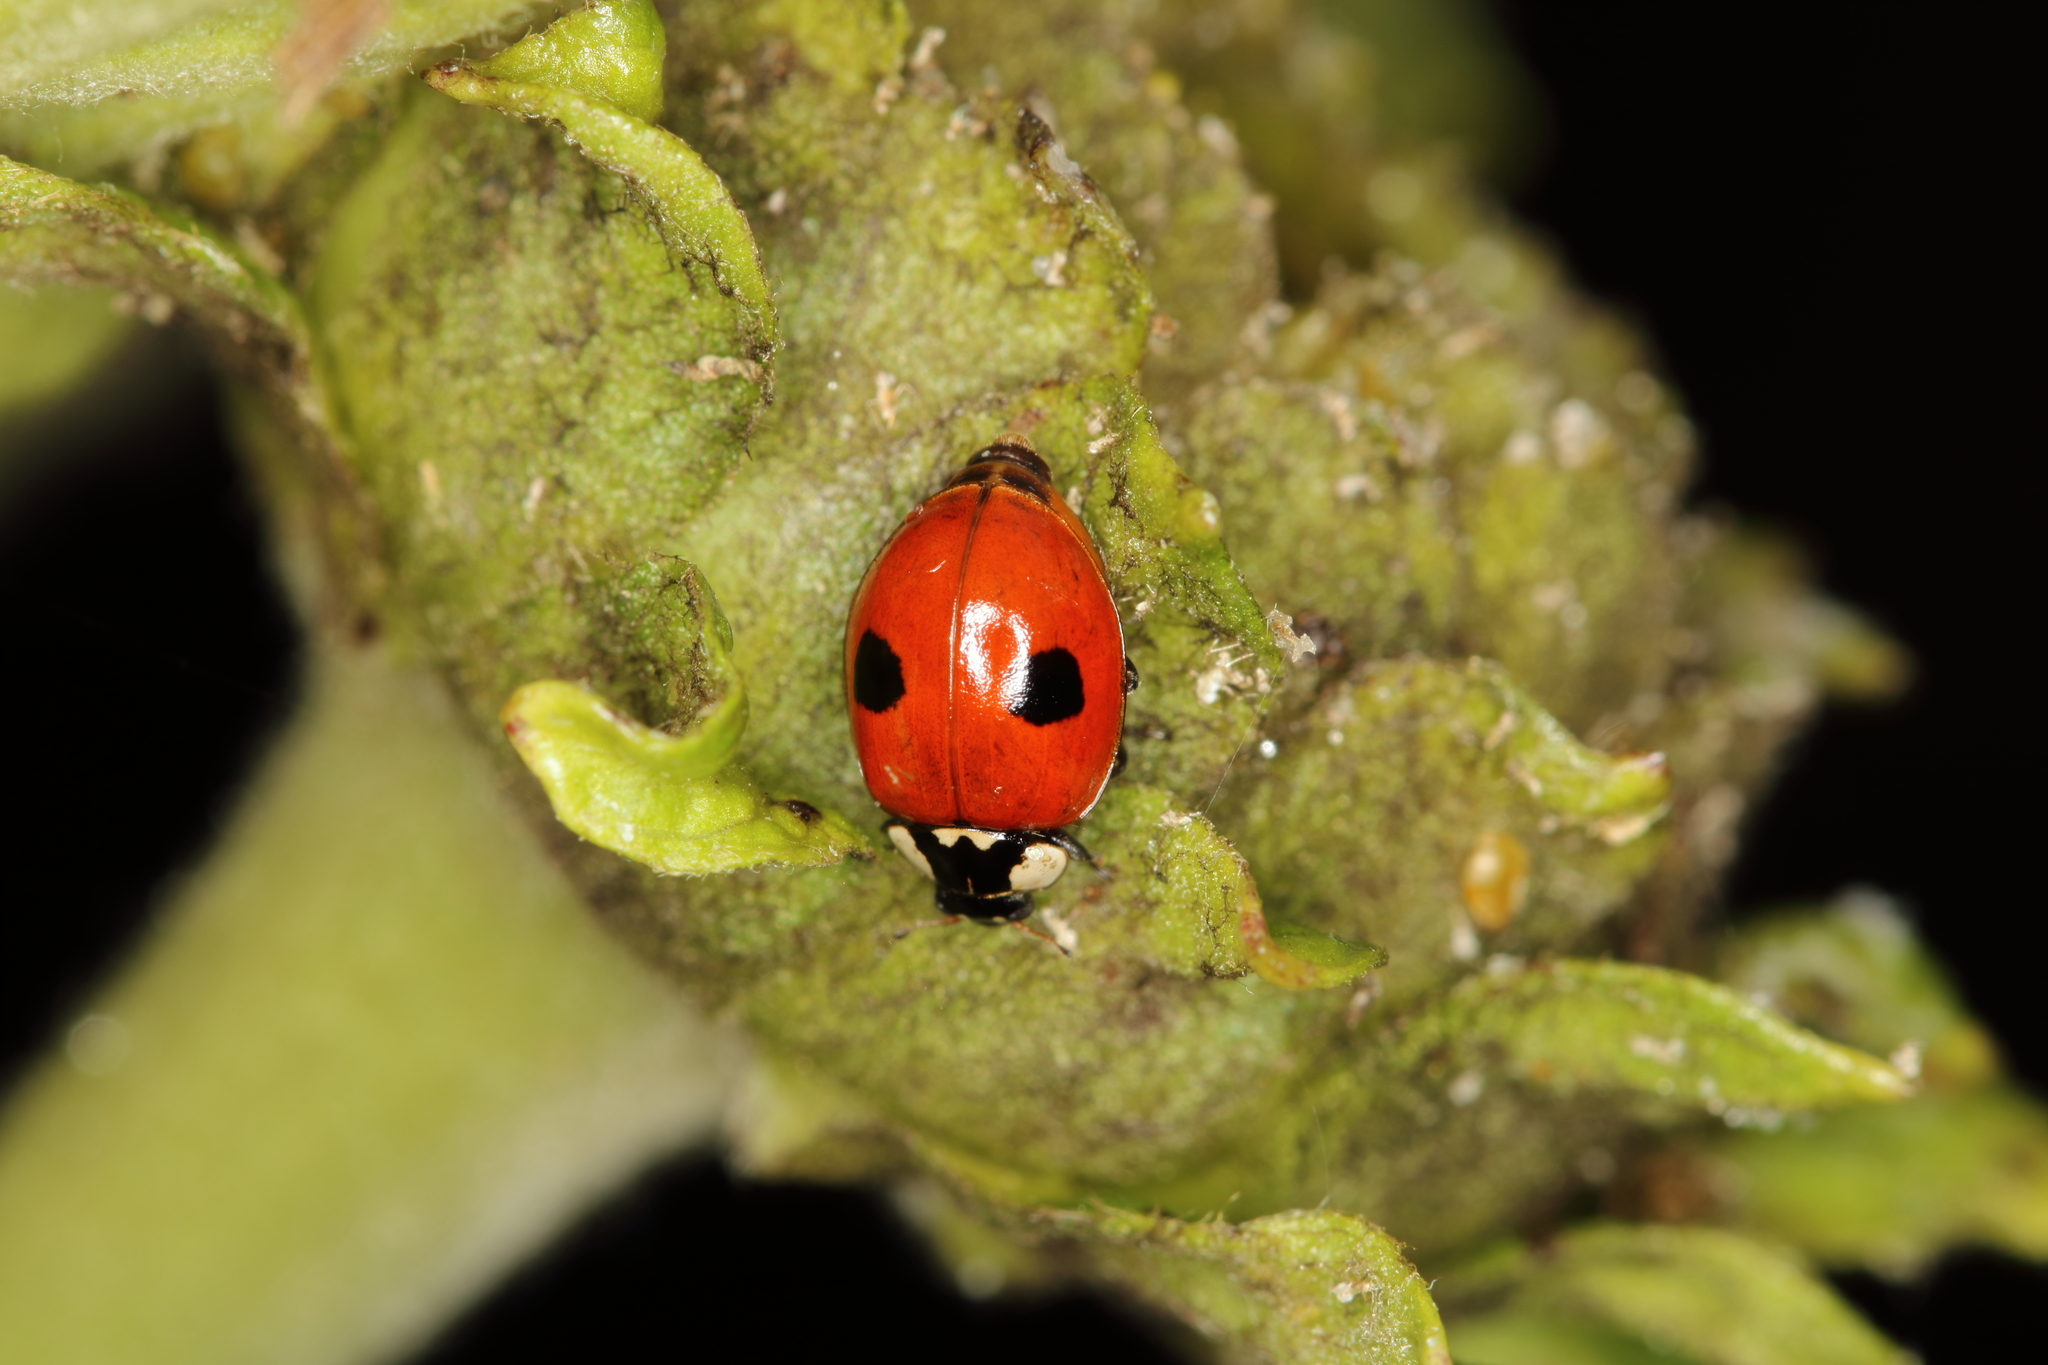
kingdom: Animalia
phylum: Arthropoda
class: Insecta
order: Coleoptera
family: Coccinellidae
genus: Adalia
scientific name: Adalia bipunctata
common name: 2-spot ladybird
